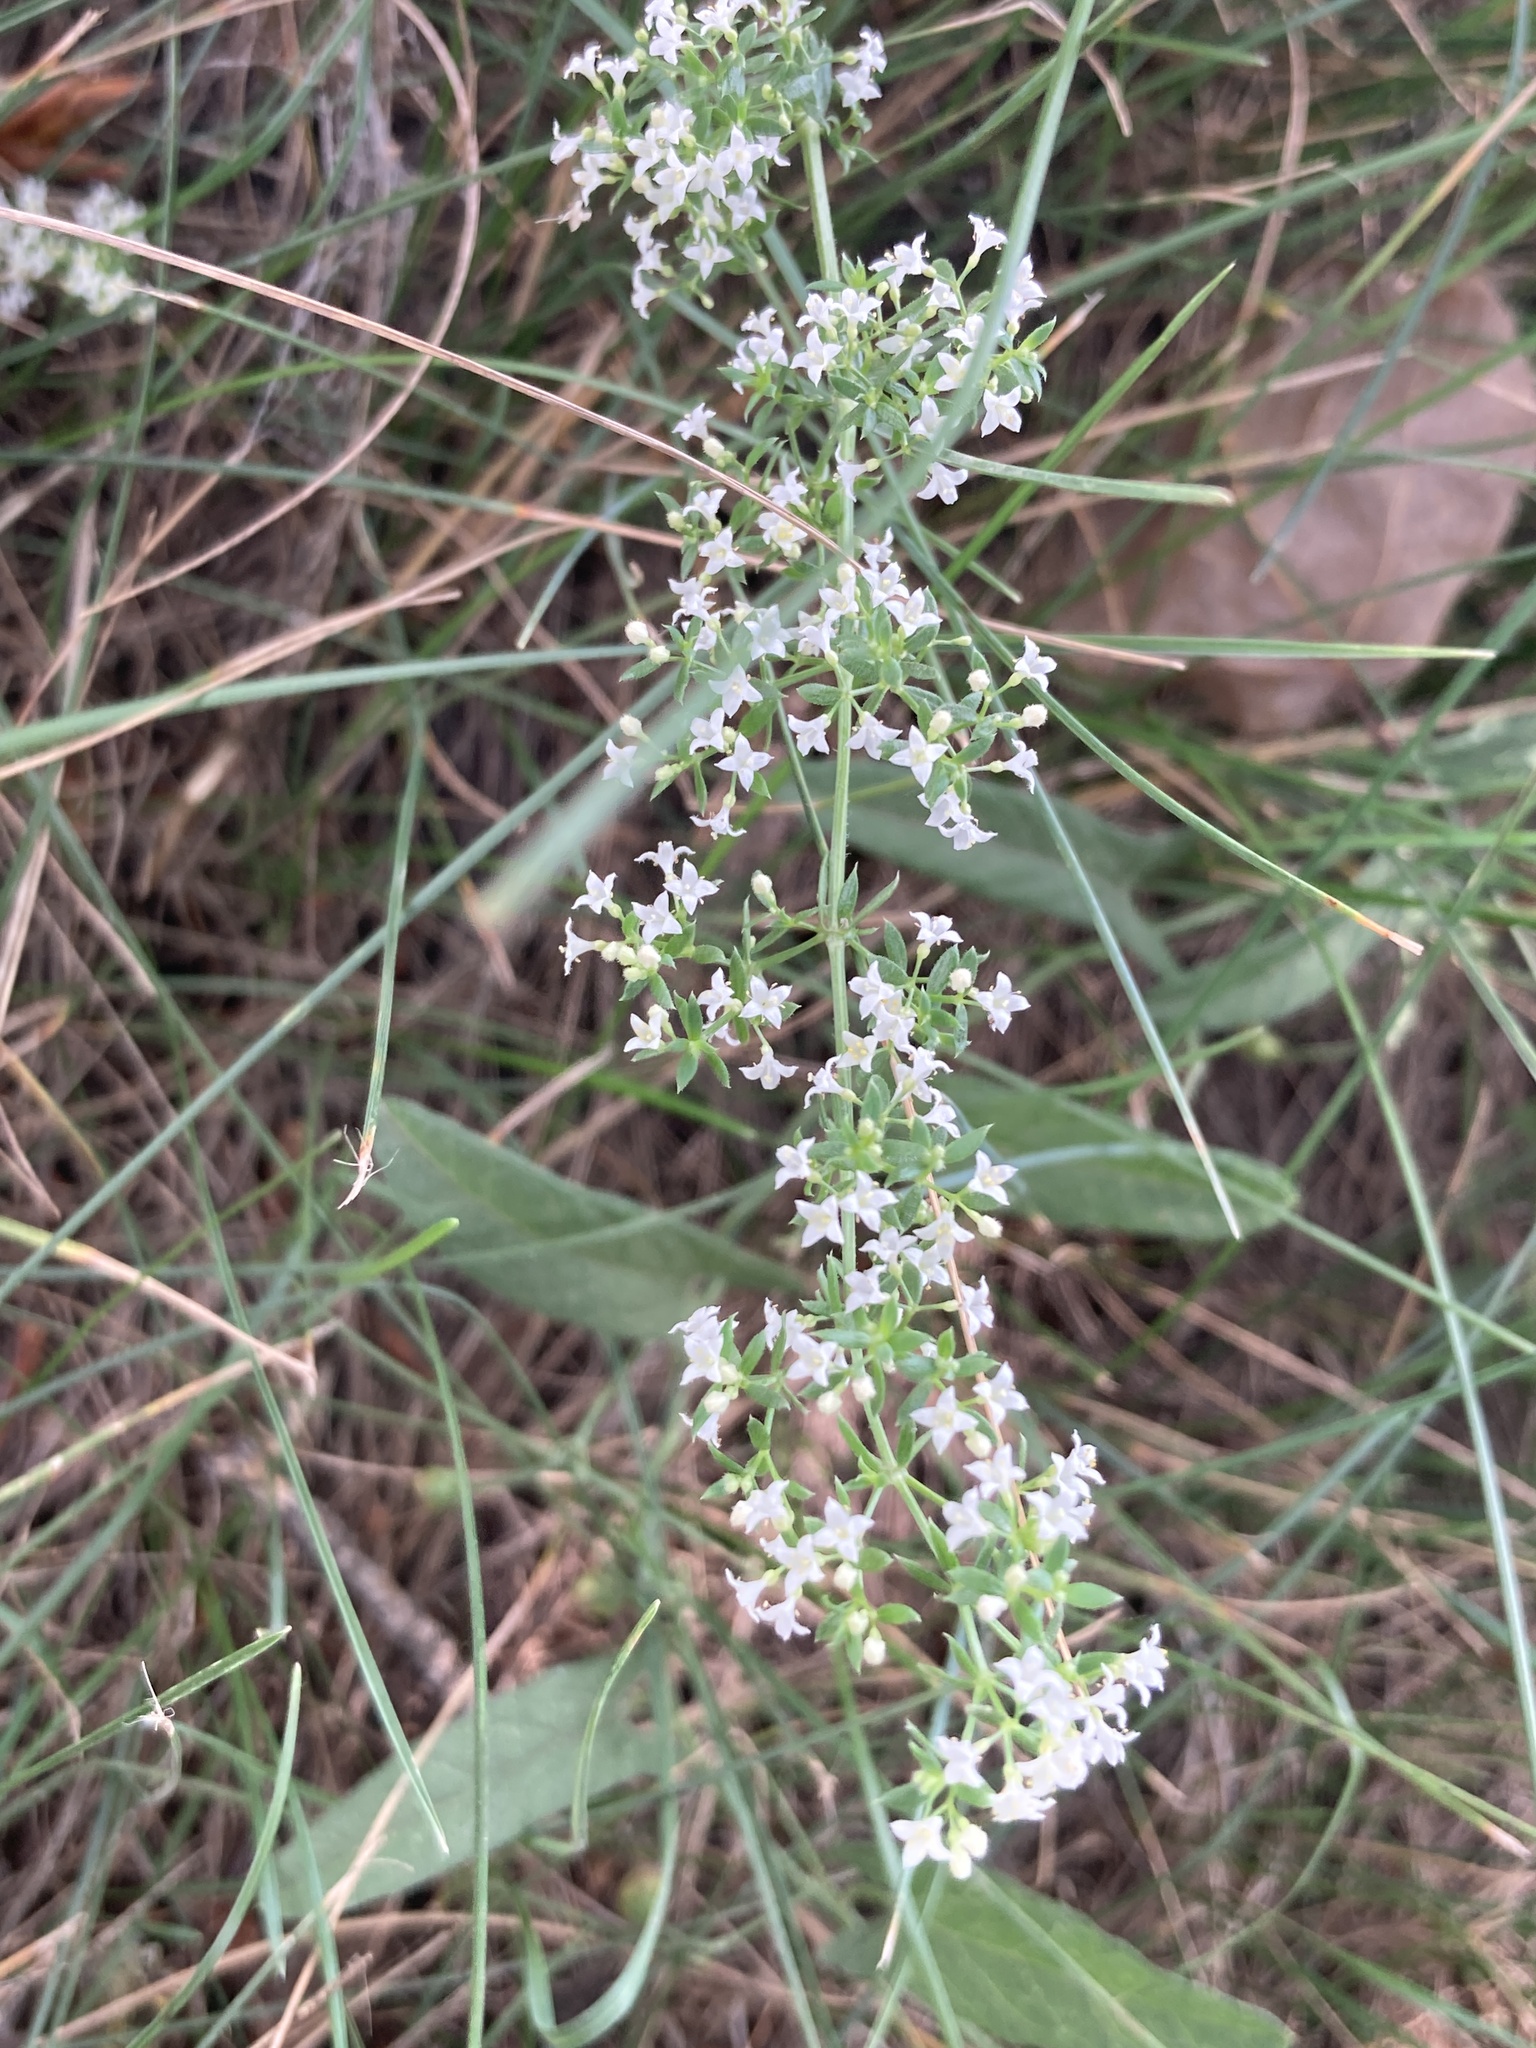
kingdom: Plantae
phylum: Tracheophyta
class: Magnoliopsida
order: Gentianales
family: Rubiaceae
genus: Galium
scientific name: Galium humifusum
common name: Spreading bedstraw
